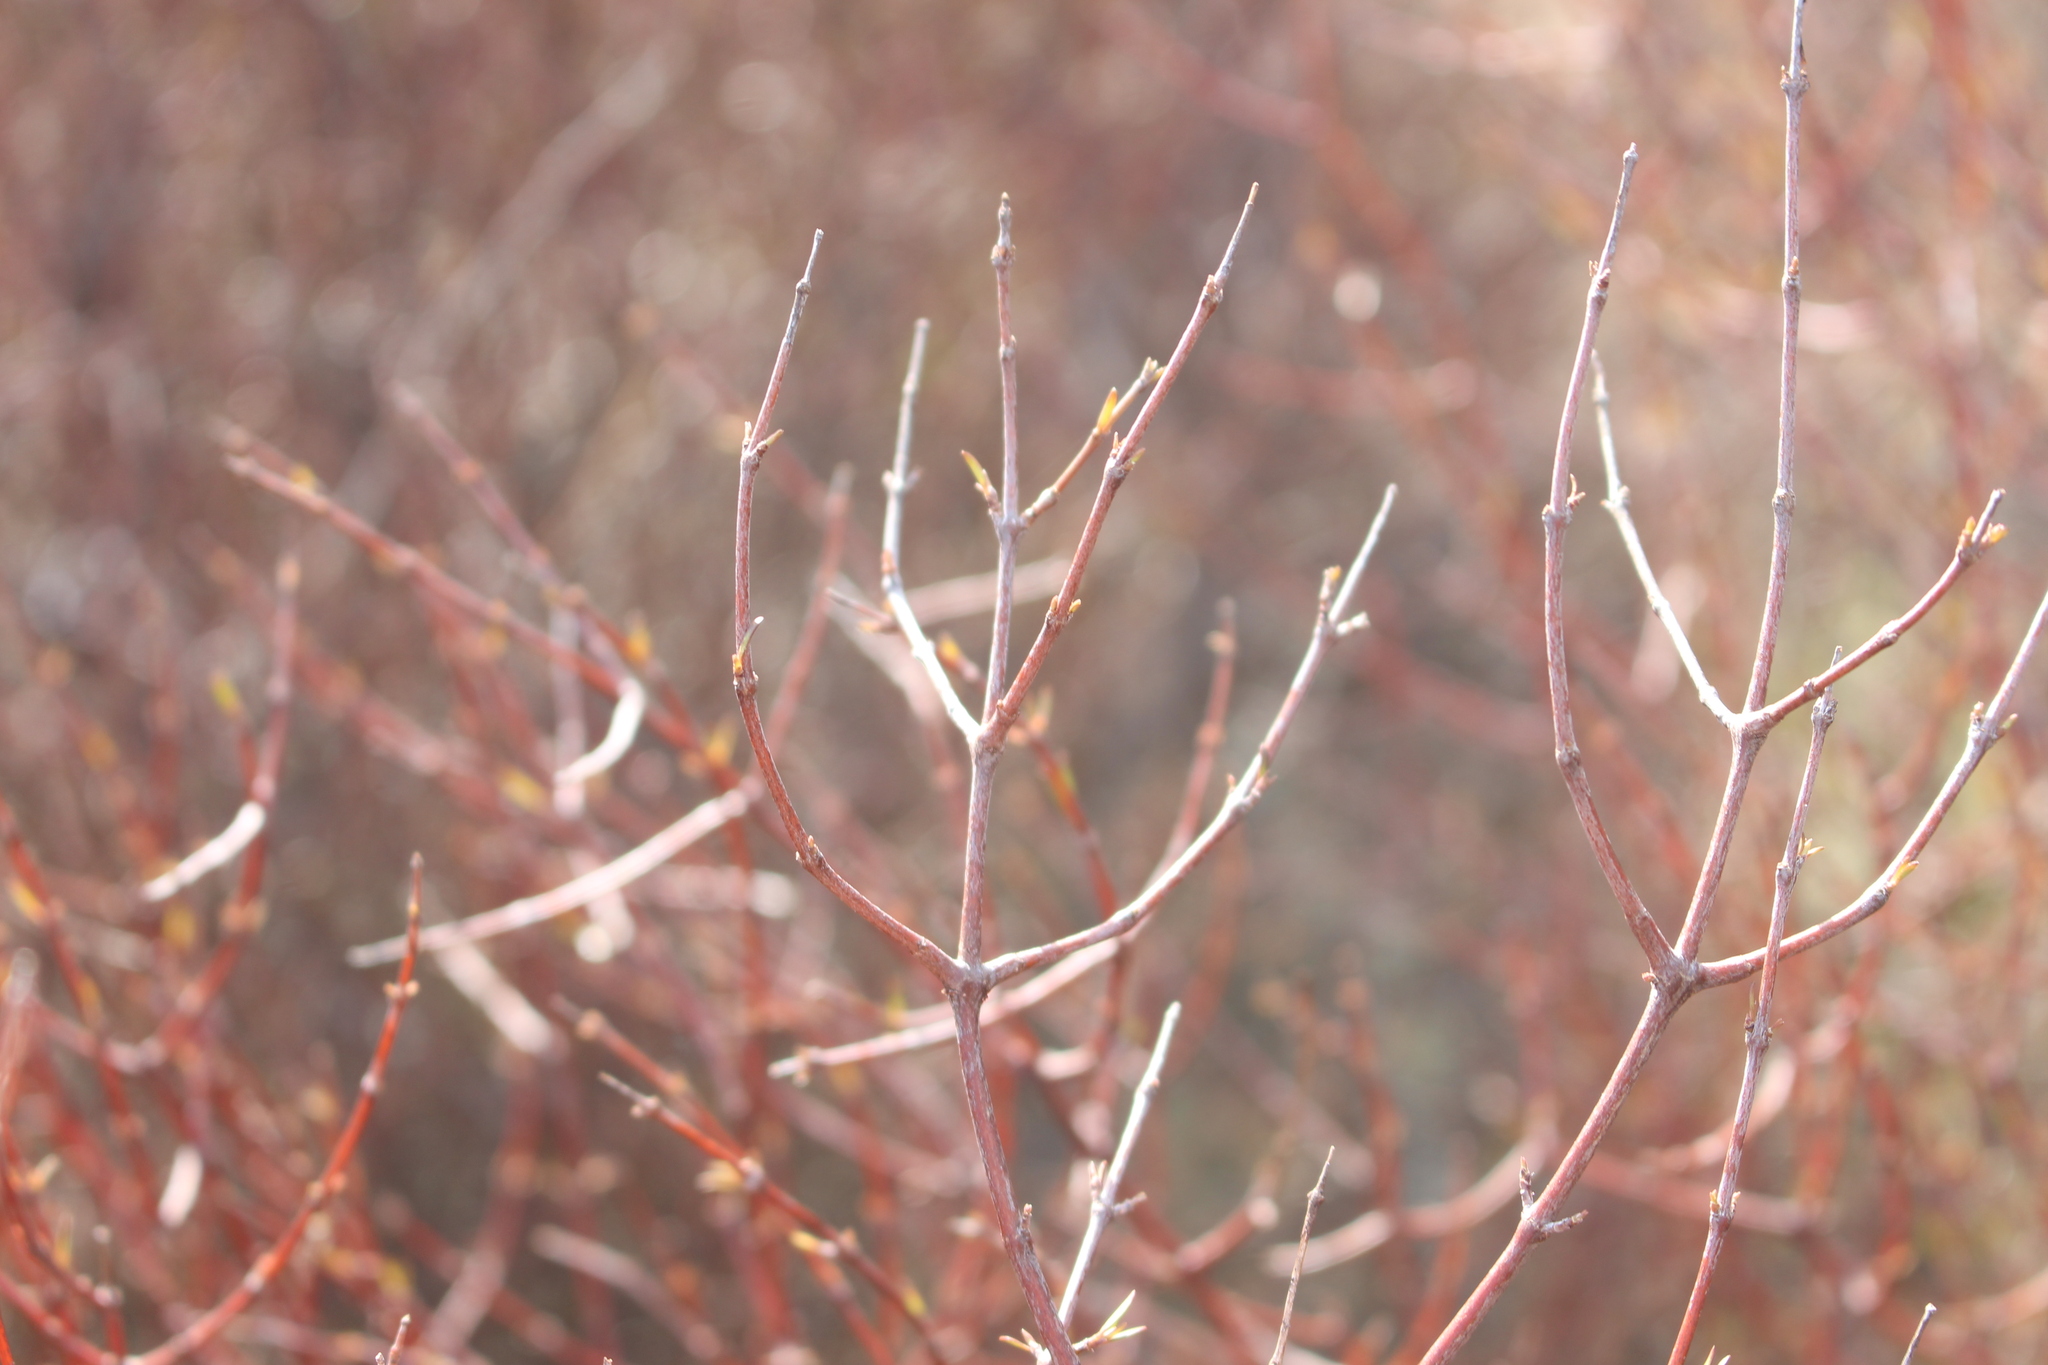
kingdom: Plantae
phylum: Tracheophyta
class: Magnoliopsida
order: Gentianales
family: Rubiaceae
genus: Coprosma
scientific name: Coprosma intertexta
